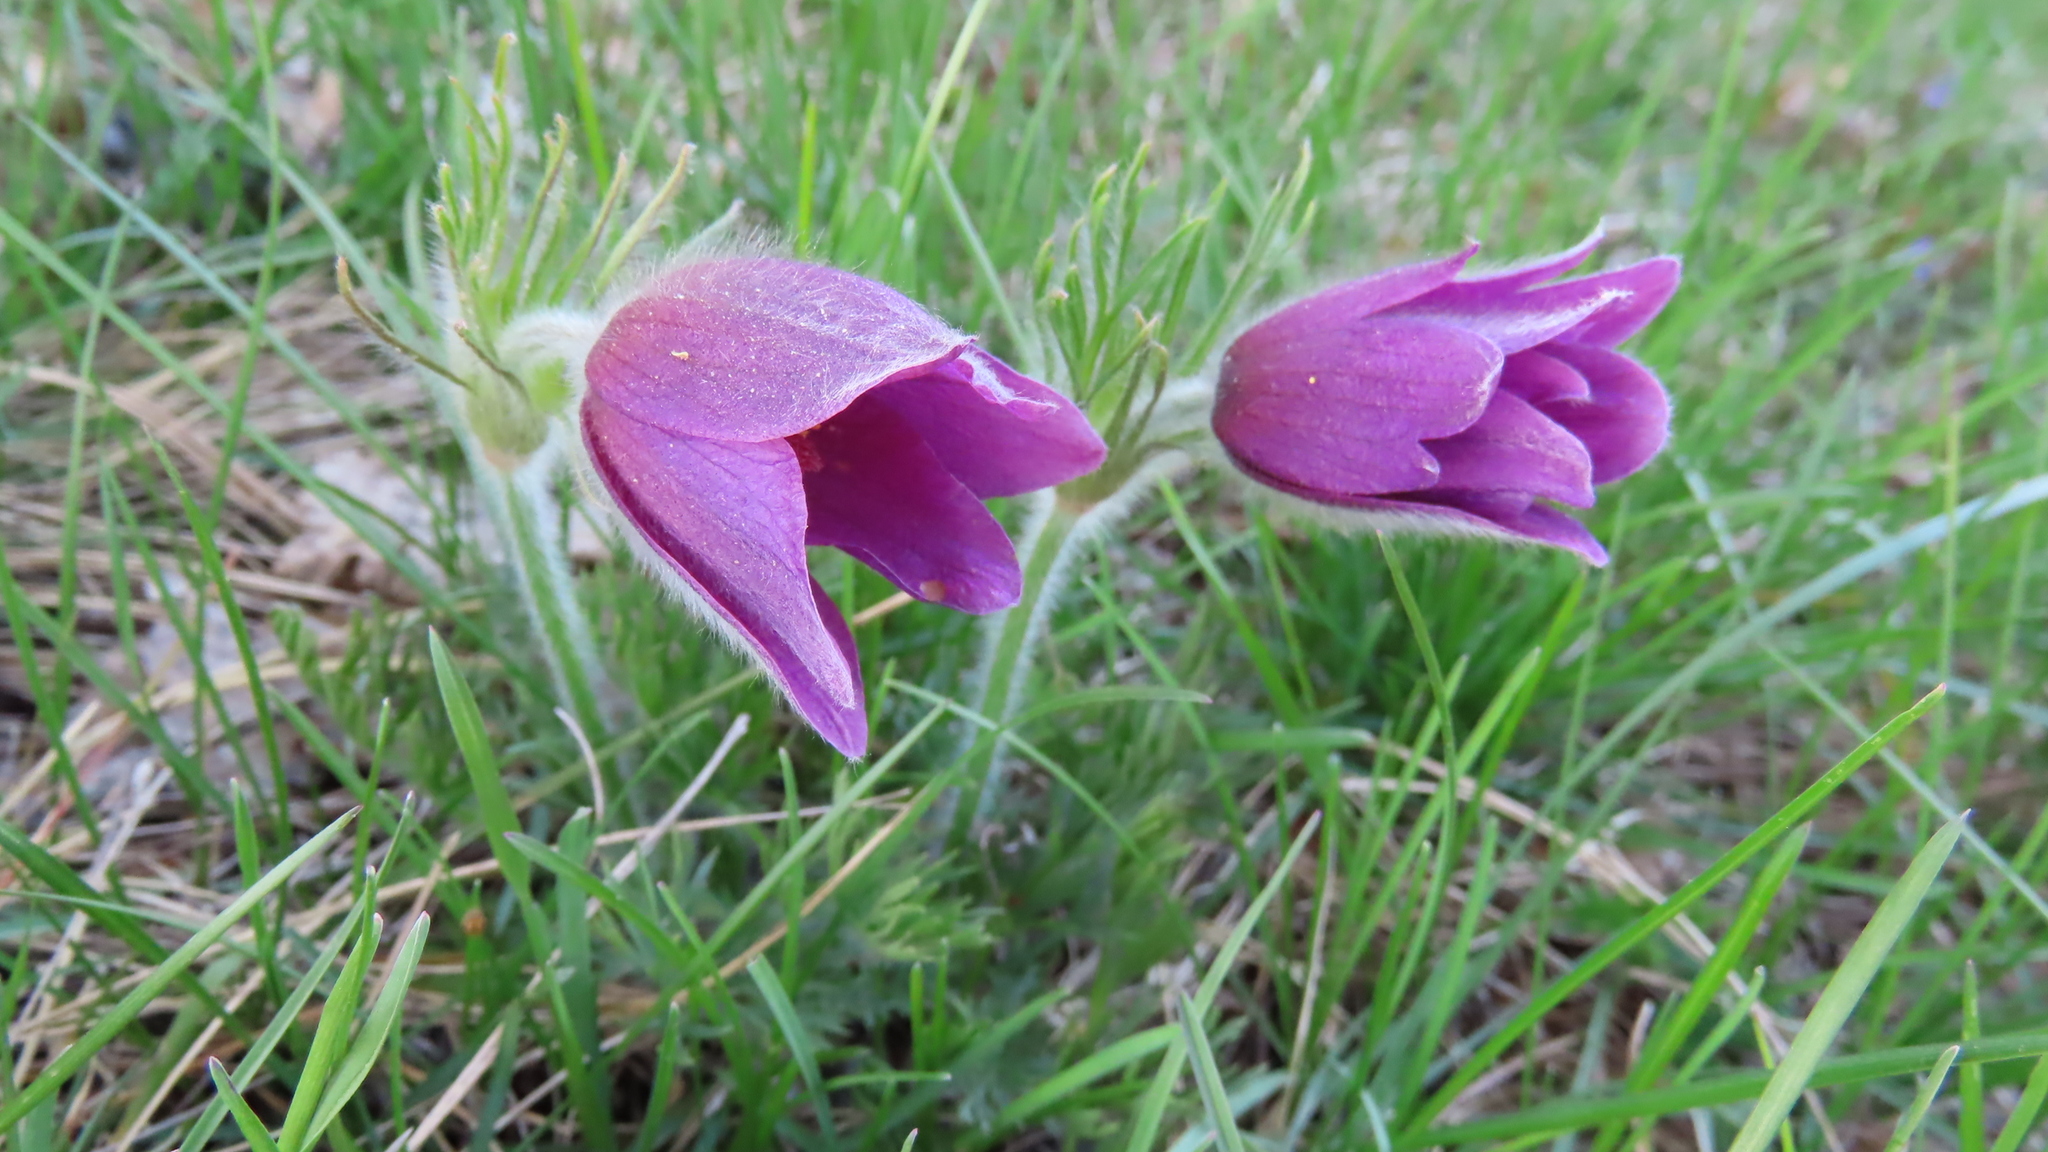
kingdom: Plantae
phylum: Tracheophyta
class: Magnoliopsida
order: Ranunculales
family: Ranunculaceae
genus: Pulsatilla
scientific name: Pulsatilla turczaninovii
